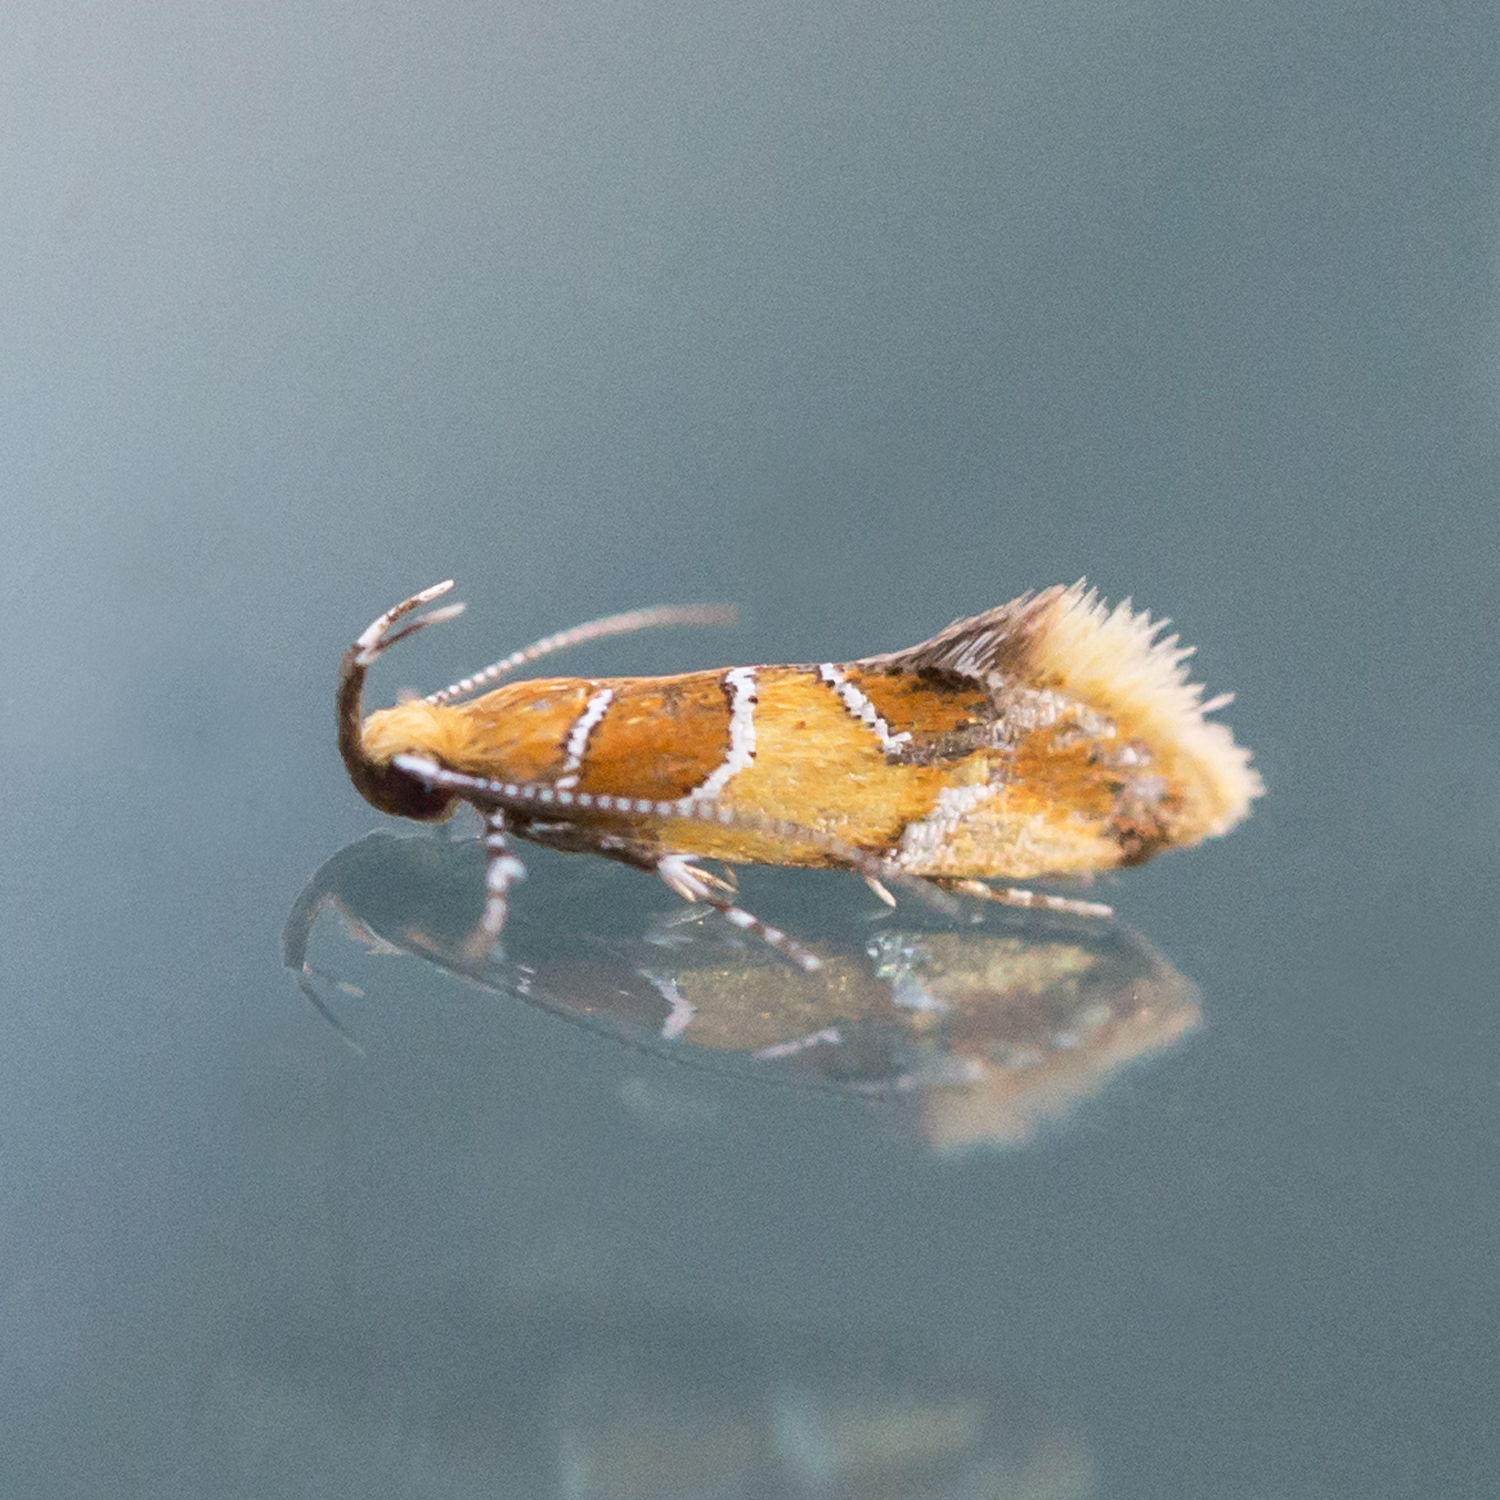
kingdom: Animalia
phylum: Arthropoda
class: Insecta
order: Lepidoptera
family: Oecophoridae
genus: Callima
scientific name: Callima argenticinctella
